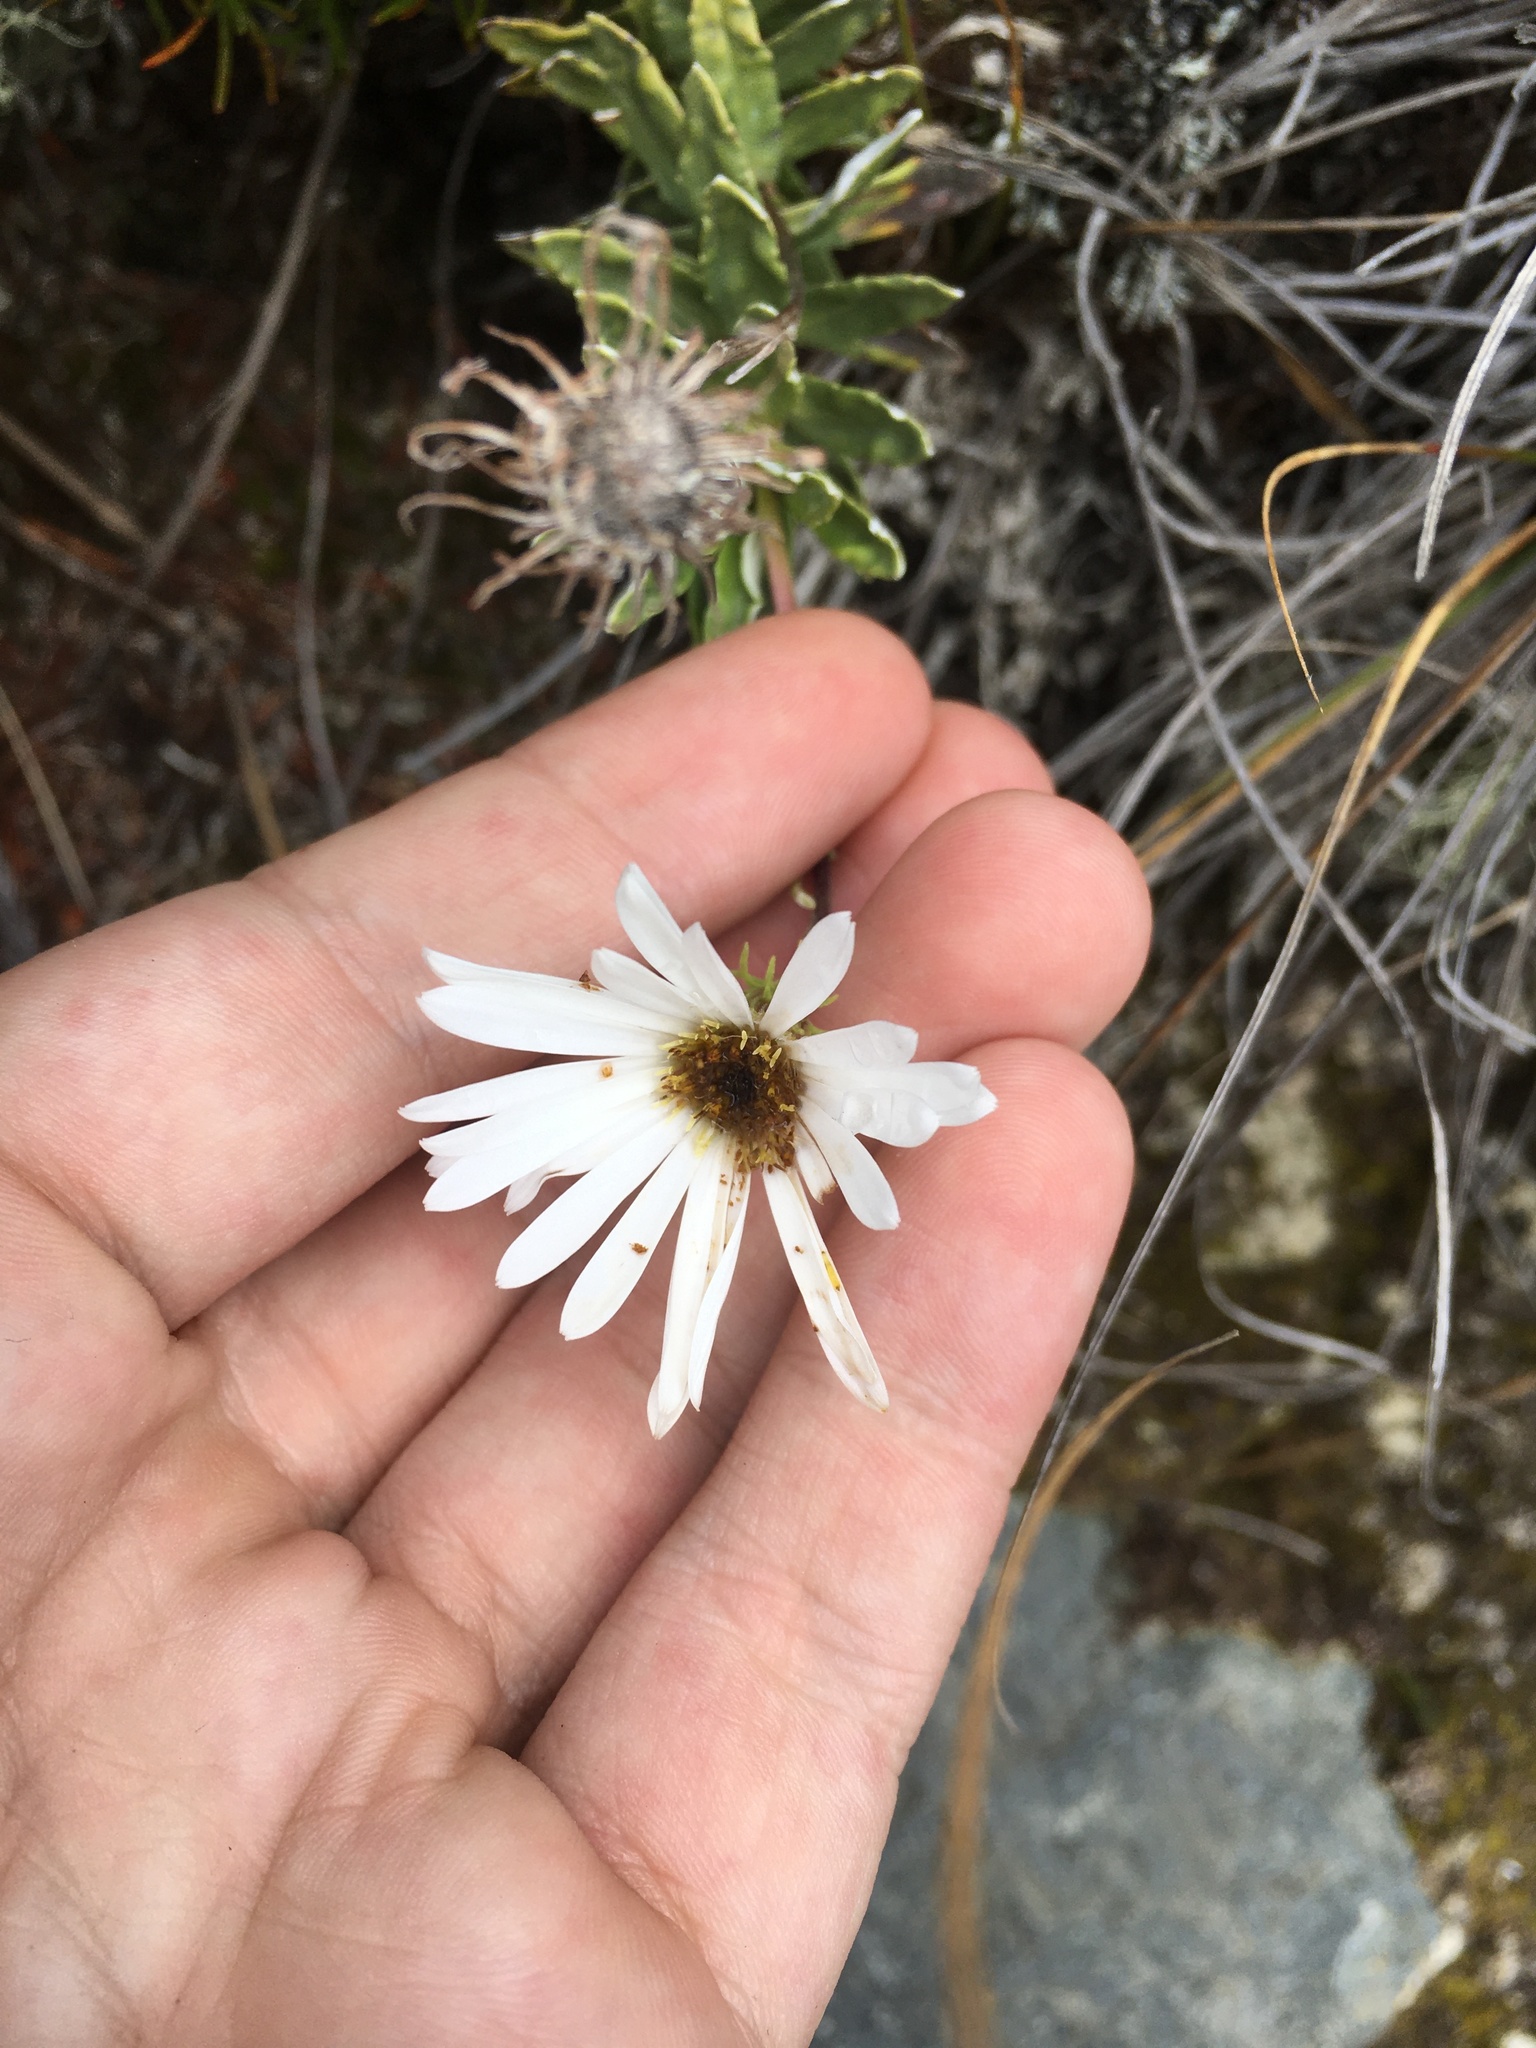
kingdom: Plantae
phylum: Tracheophyta
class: Magnoliopsida
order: Asterales
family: Asteraceae
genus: Celmisia
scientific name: Celmisia angustifolia
